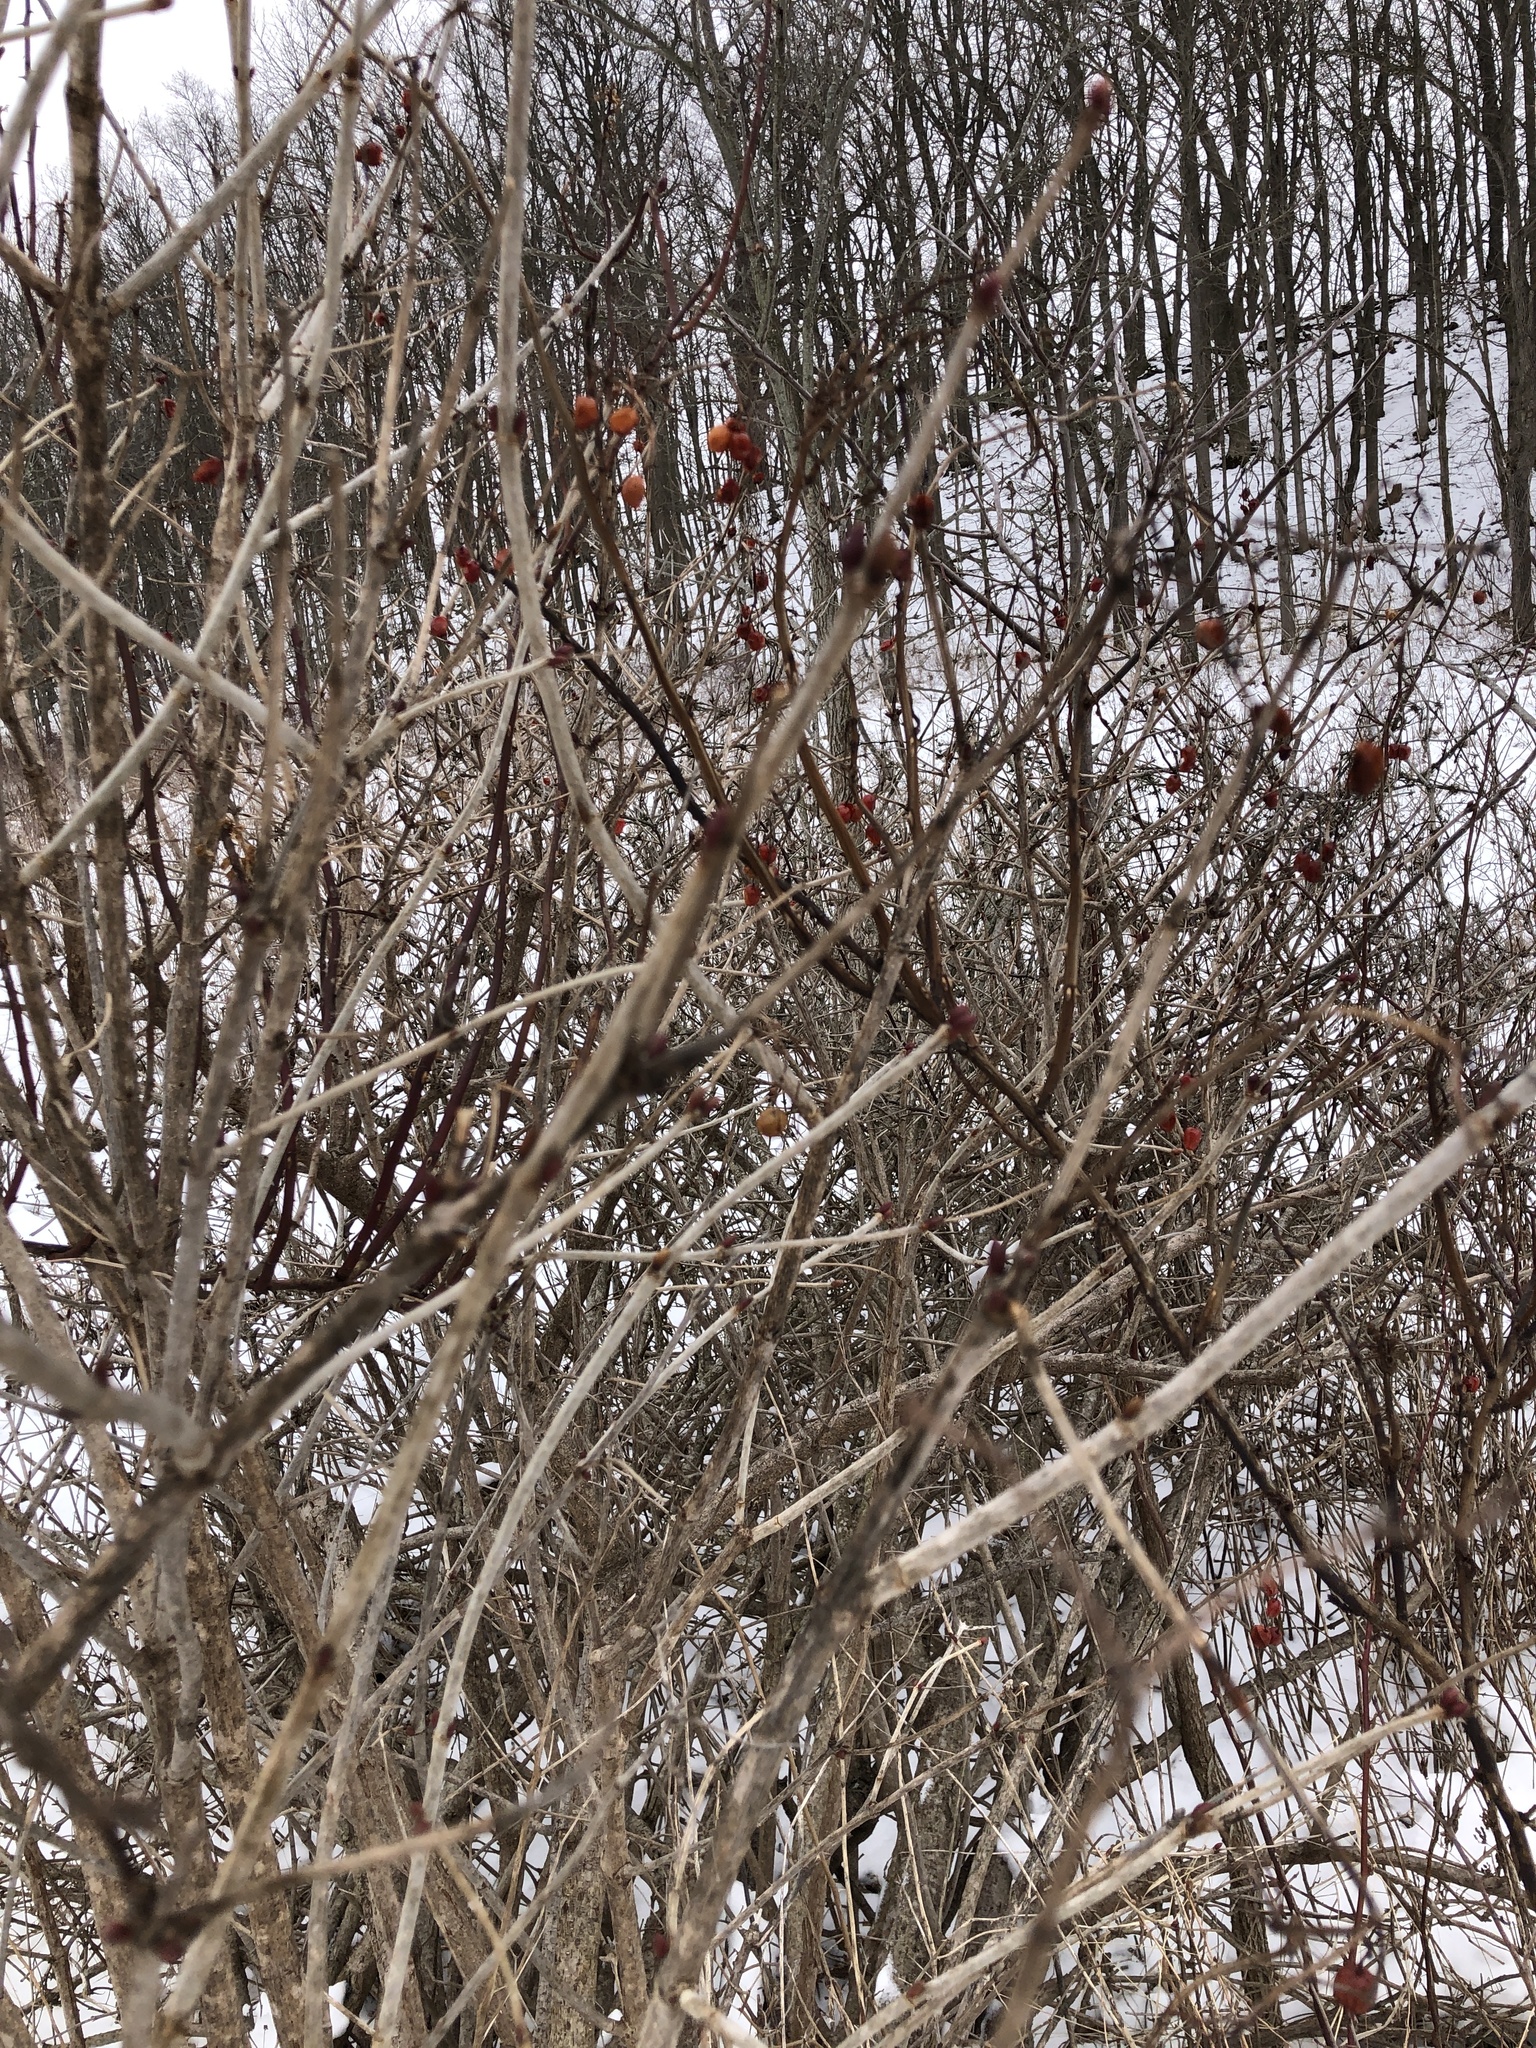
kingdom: Plantae
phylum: Tracheophyta
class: Magnoliopsida
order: Dipsacales
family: Viburnaceae
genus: Viburnum
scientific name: Viburnum opulus
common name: Guelder-rose
